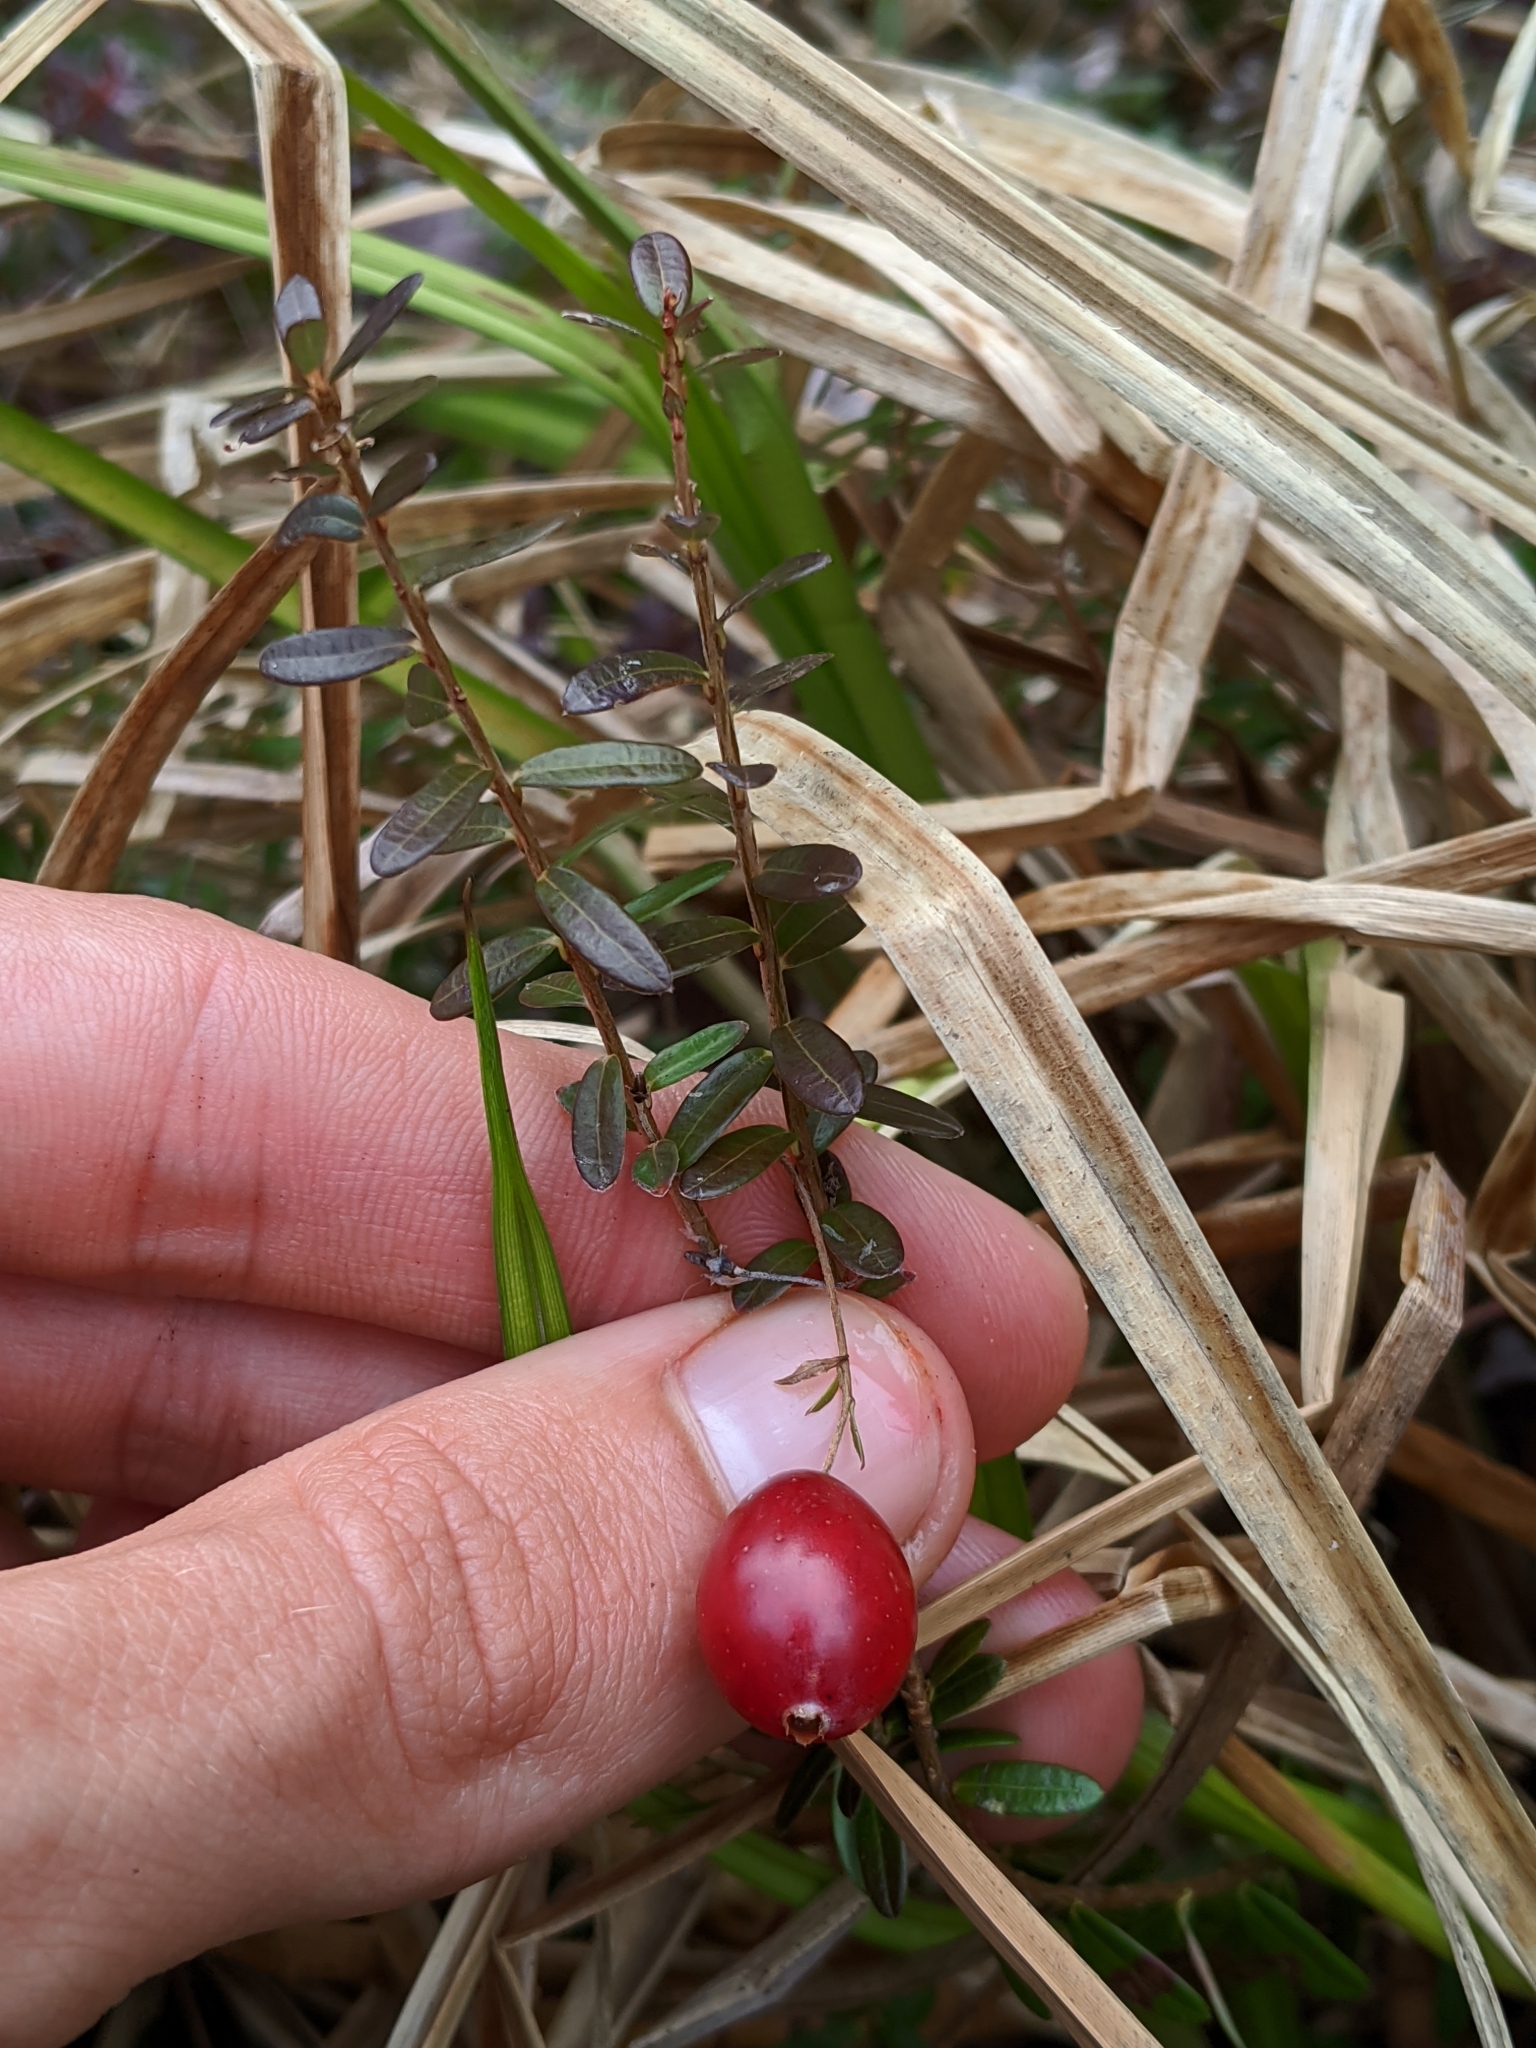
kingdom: Plantae
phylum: Tracheophyta
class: Magnoliopsida
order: Ericales
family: Ericaceae
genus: Vaccinium
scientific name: Vaccinium oxycoccos
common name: Cranberry
